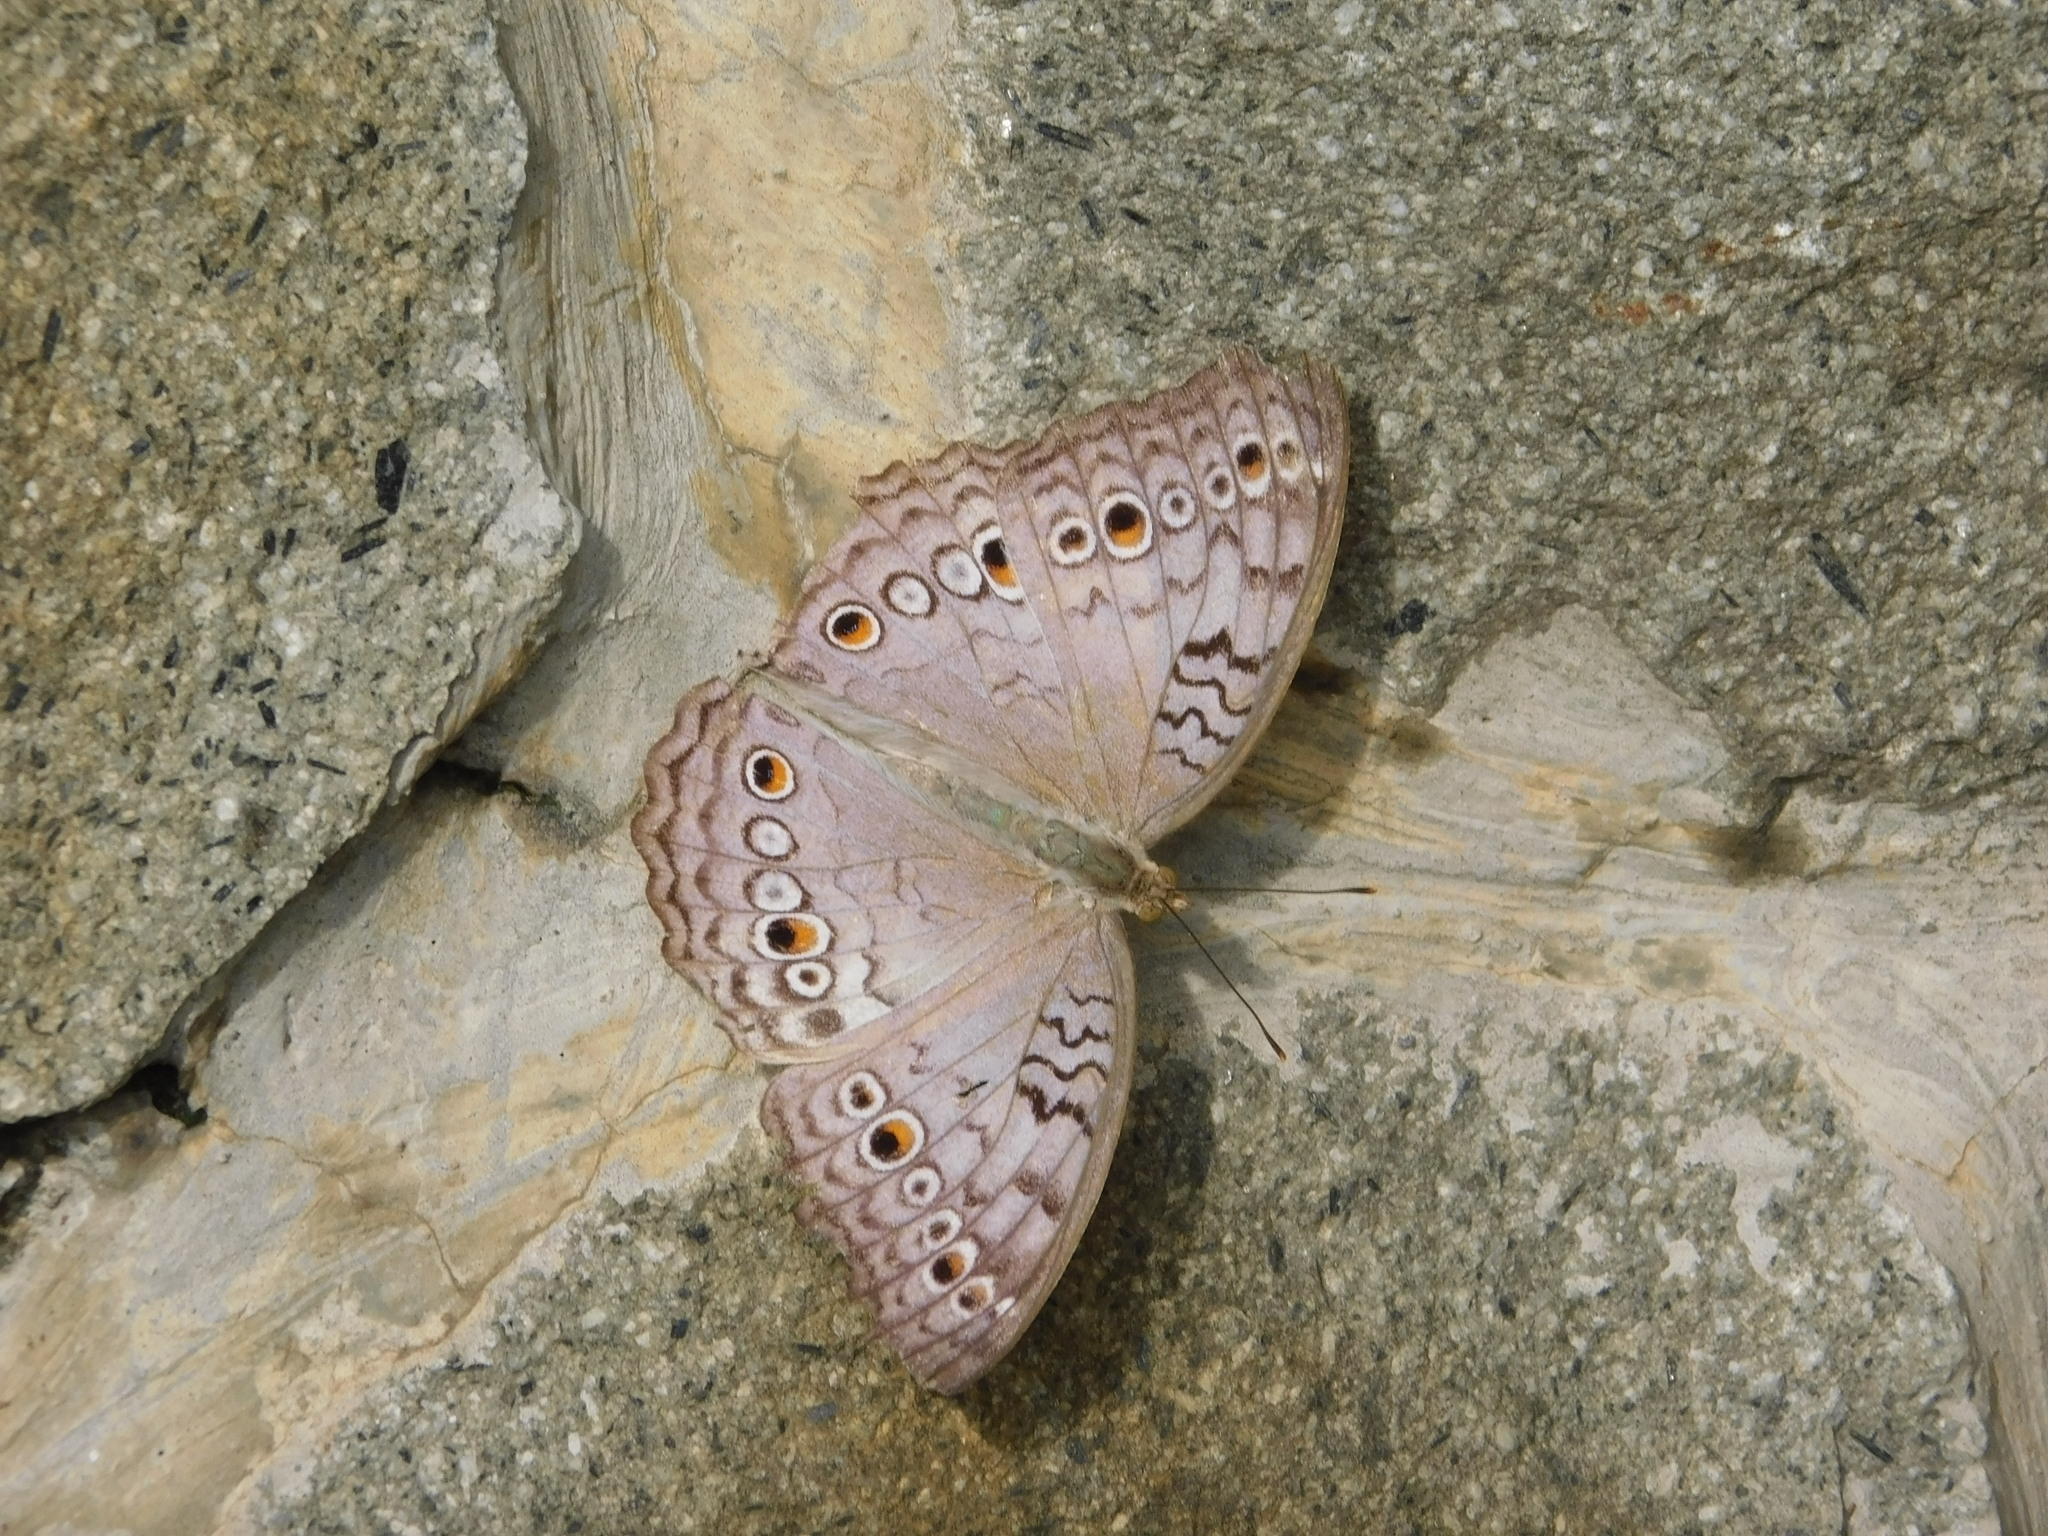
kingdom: Animalia
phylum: Arthropoda
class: Insecta
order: Lepidoptera
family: Nymphalidae
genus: Junonia
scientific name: Junonia atlites
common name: Grey pansy
